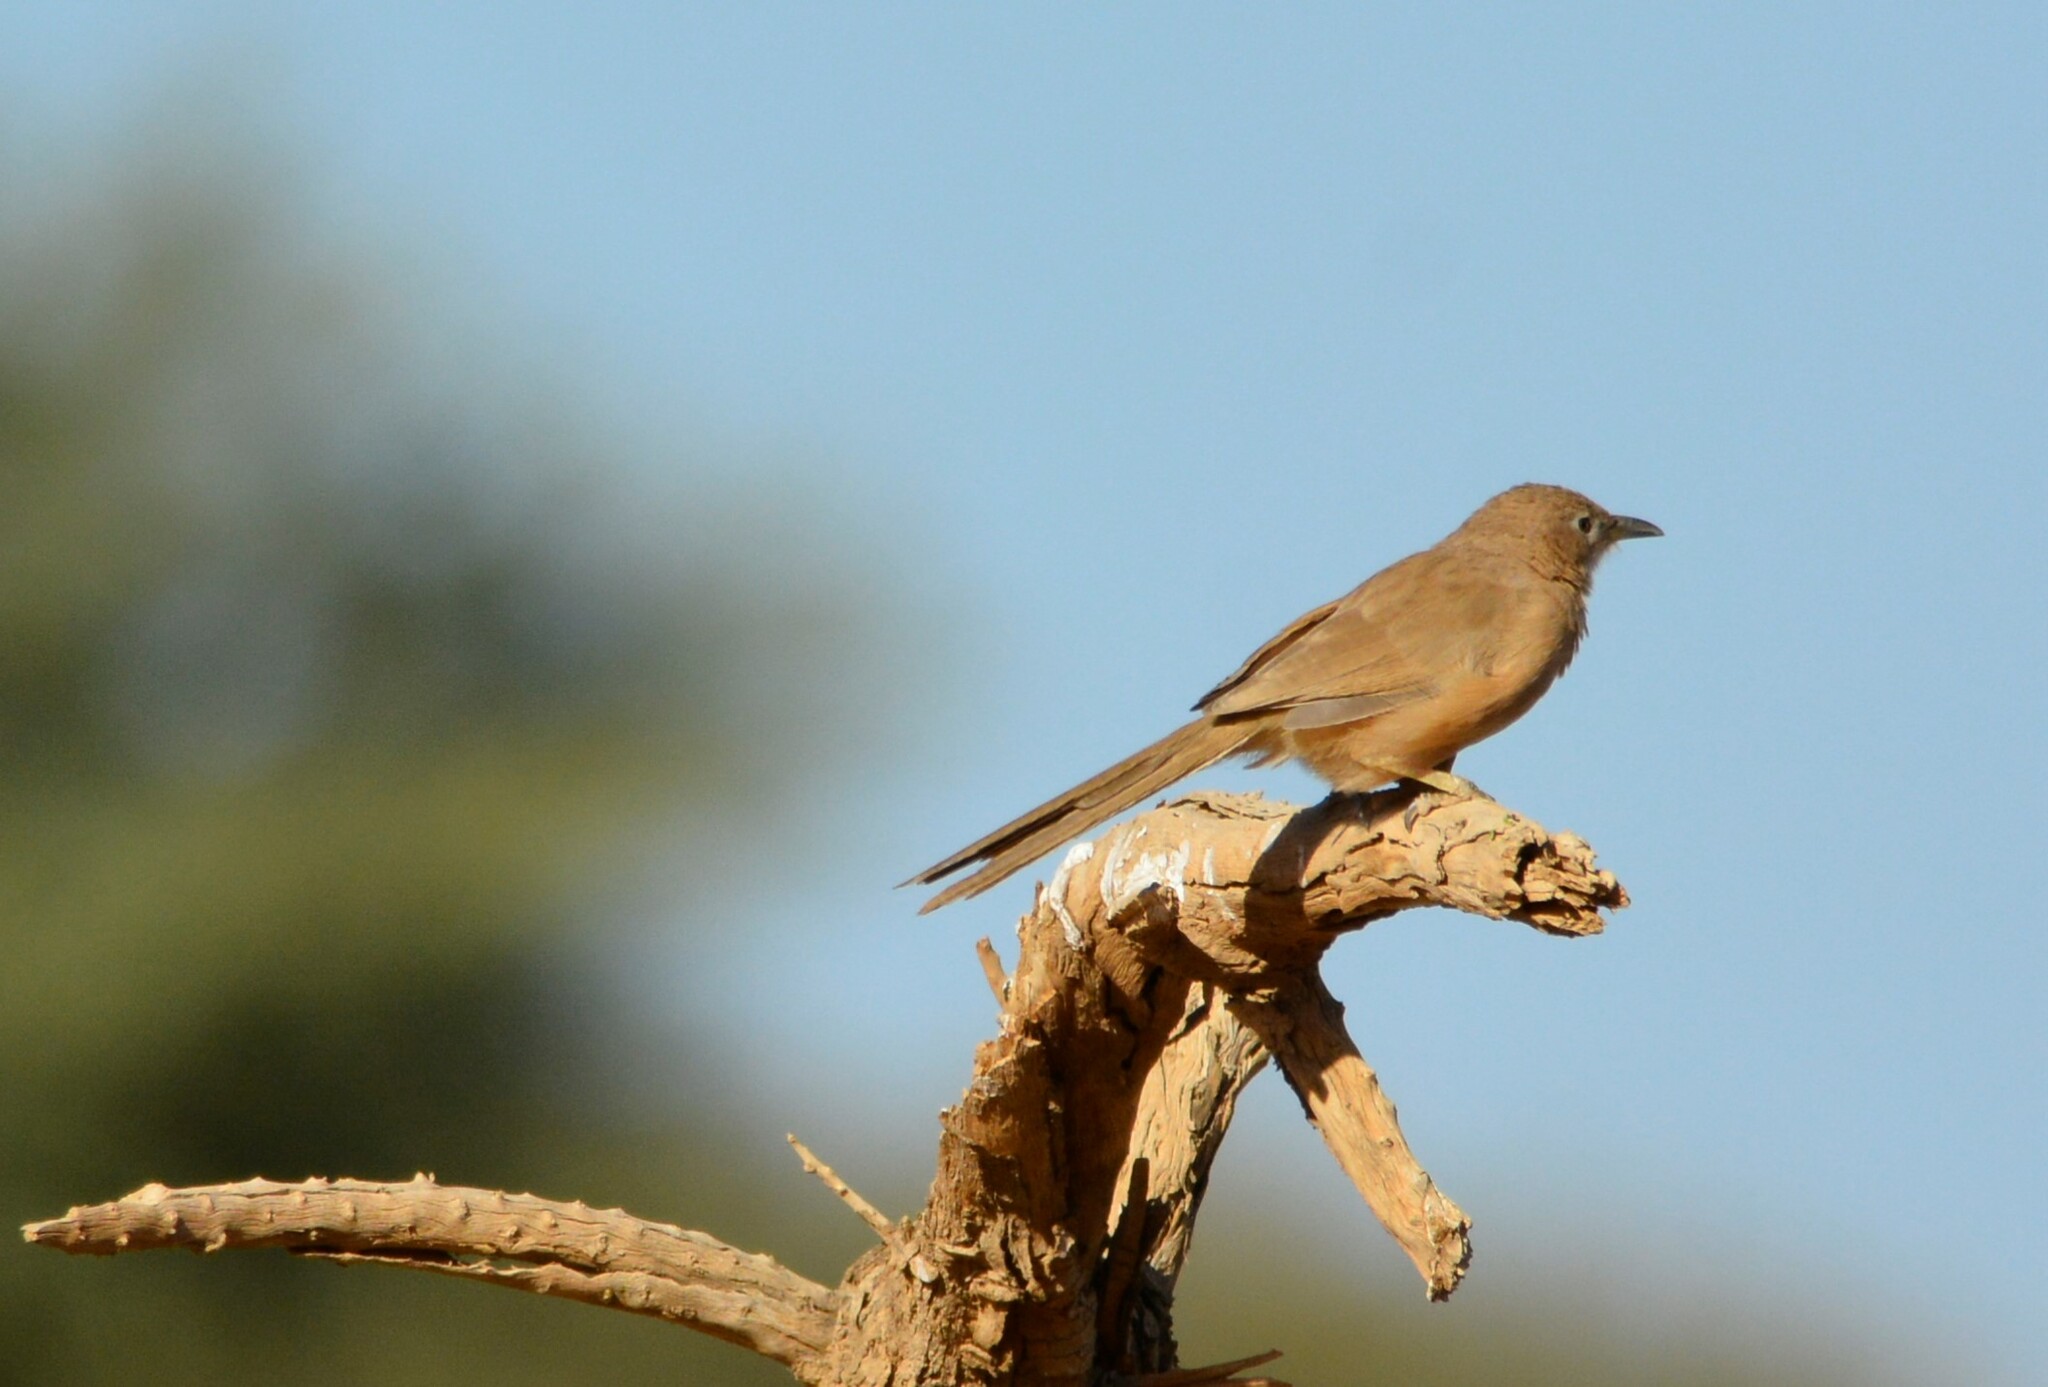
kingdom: Animalia
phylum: Chordata
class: Aves
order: Passeriformes
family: Leiothrichidae
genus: Turdoides
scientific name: Turdoides fulva
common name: Fulvous babbler
